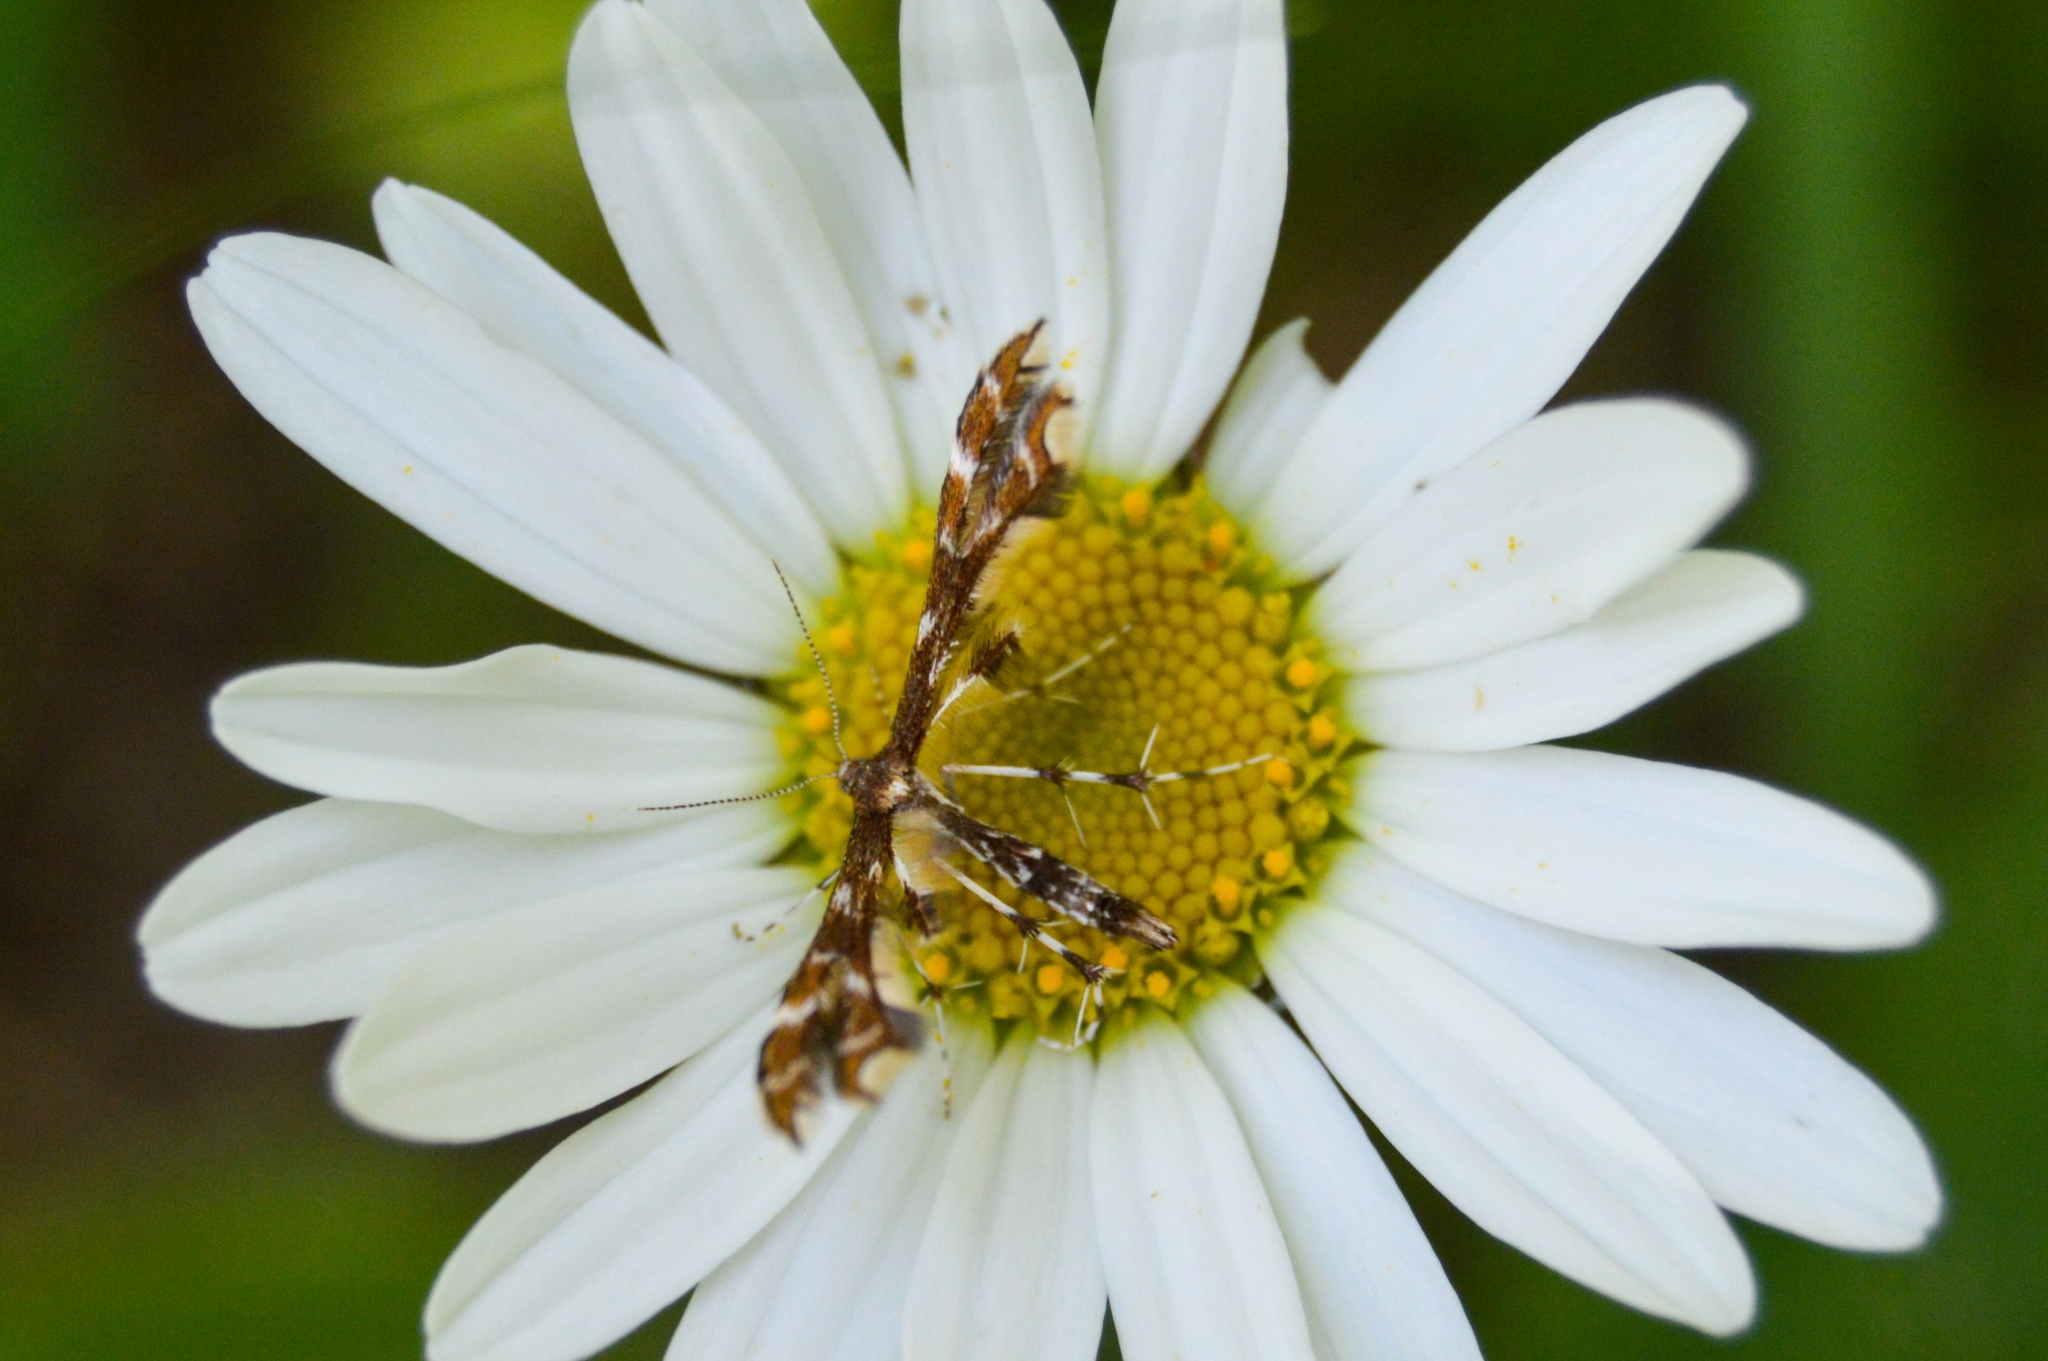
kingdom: Animalia
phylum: Arthropoda
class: Insecta
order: Lepidoptera
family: Pterophoridae
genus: Geina
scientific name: Geina didactyla
